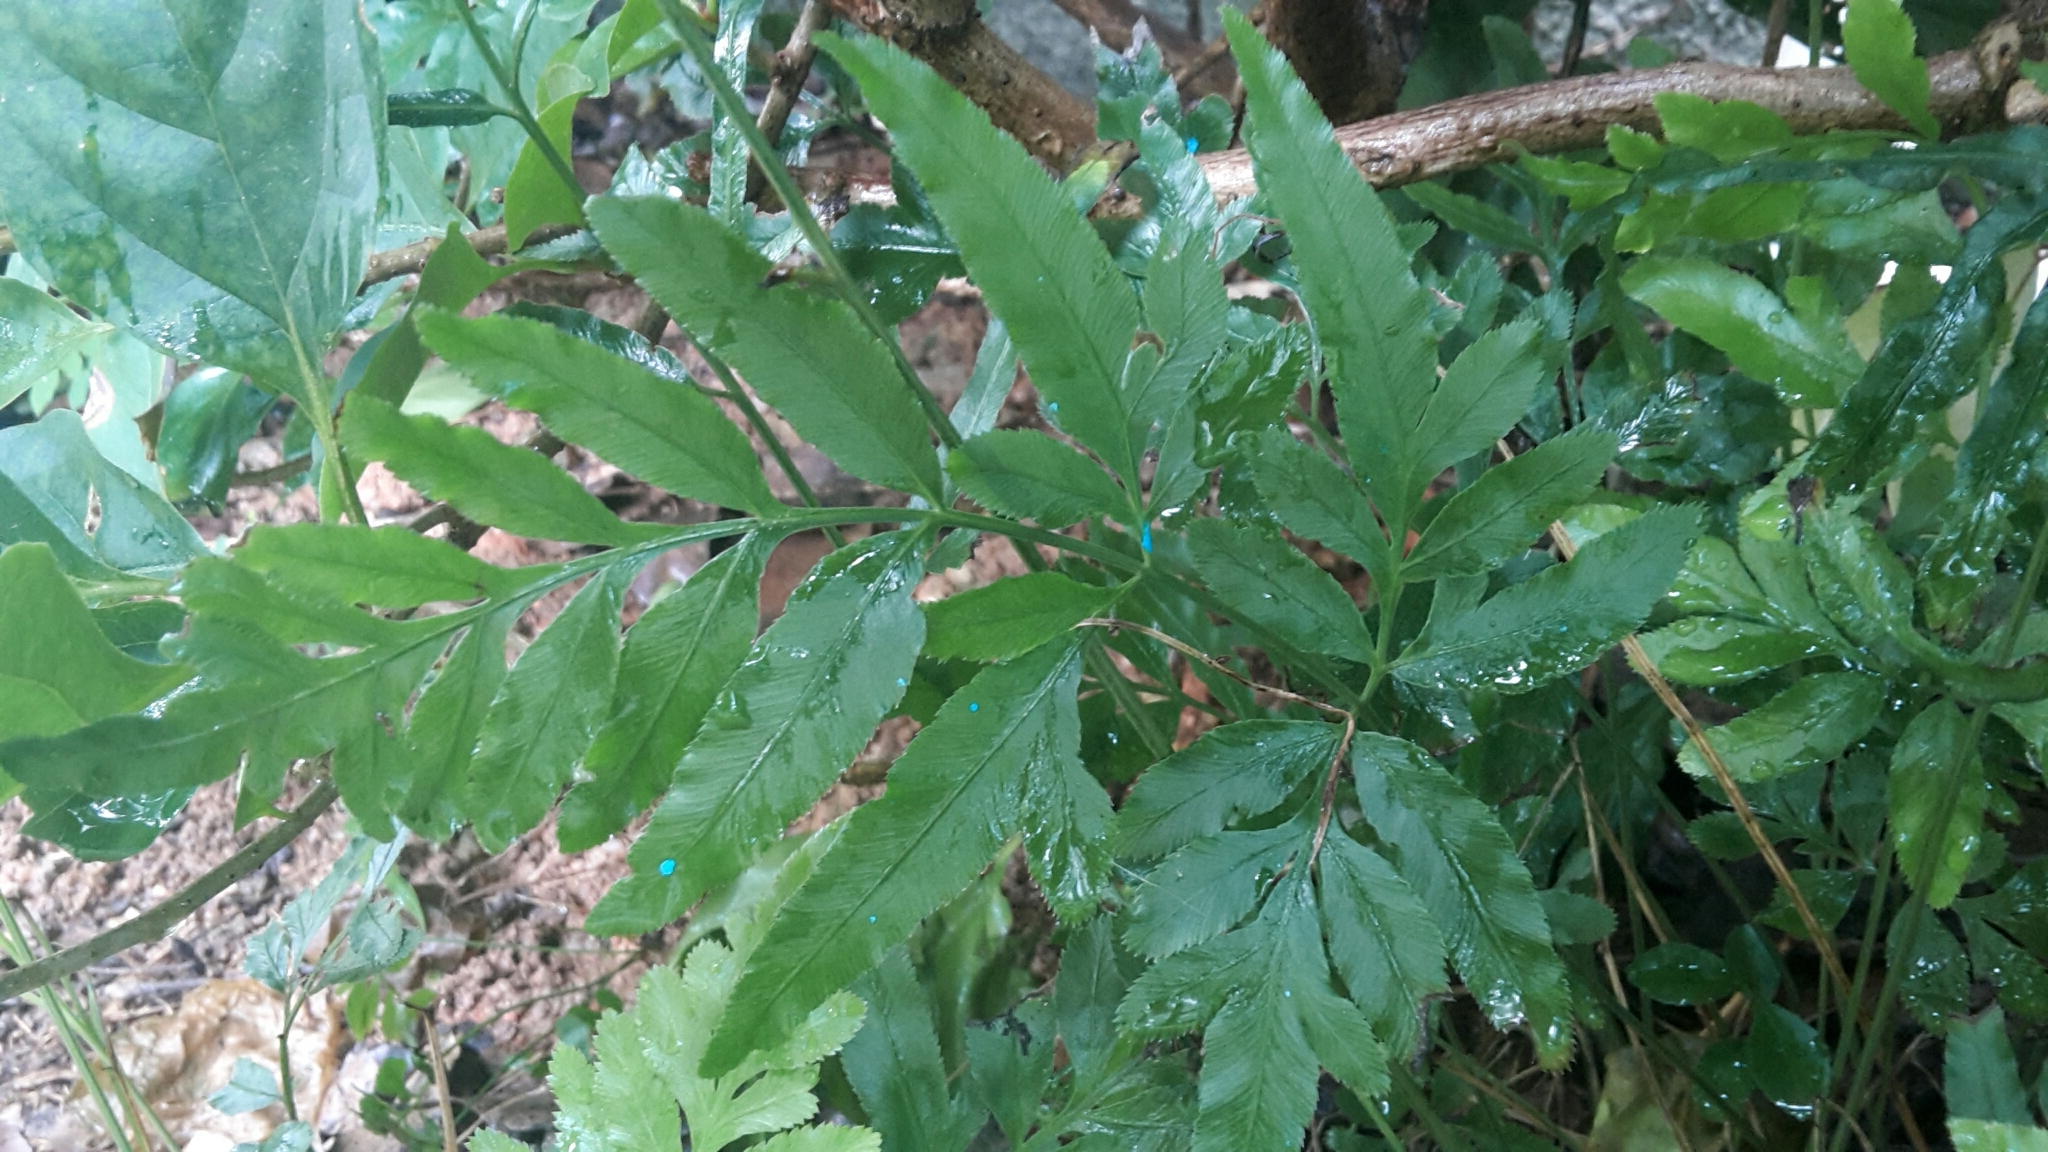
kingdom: Plantae
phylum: Tracheophyta
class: Polypodiopsida
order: Polypodiales
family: Pteridaceae
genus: Pteris
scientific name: Pteris ensiformis
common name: Sword brake
